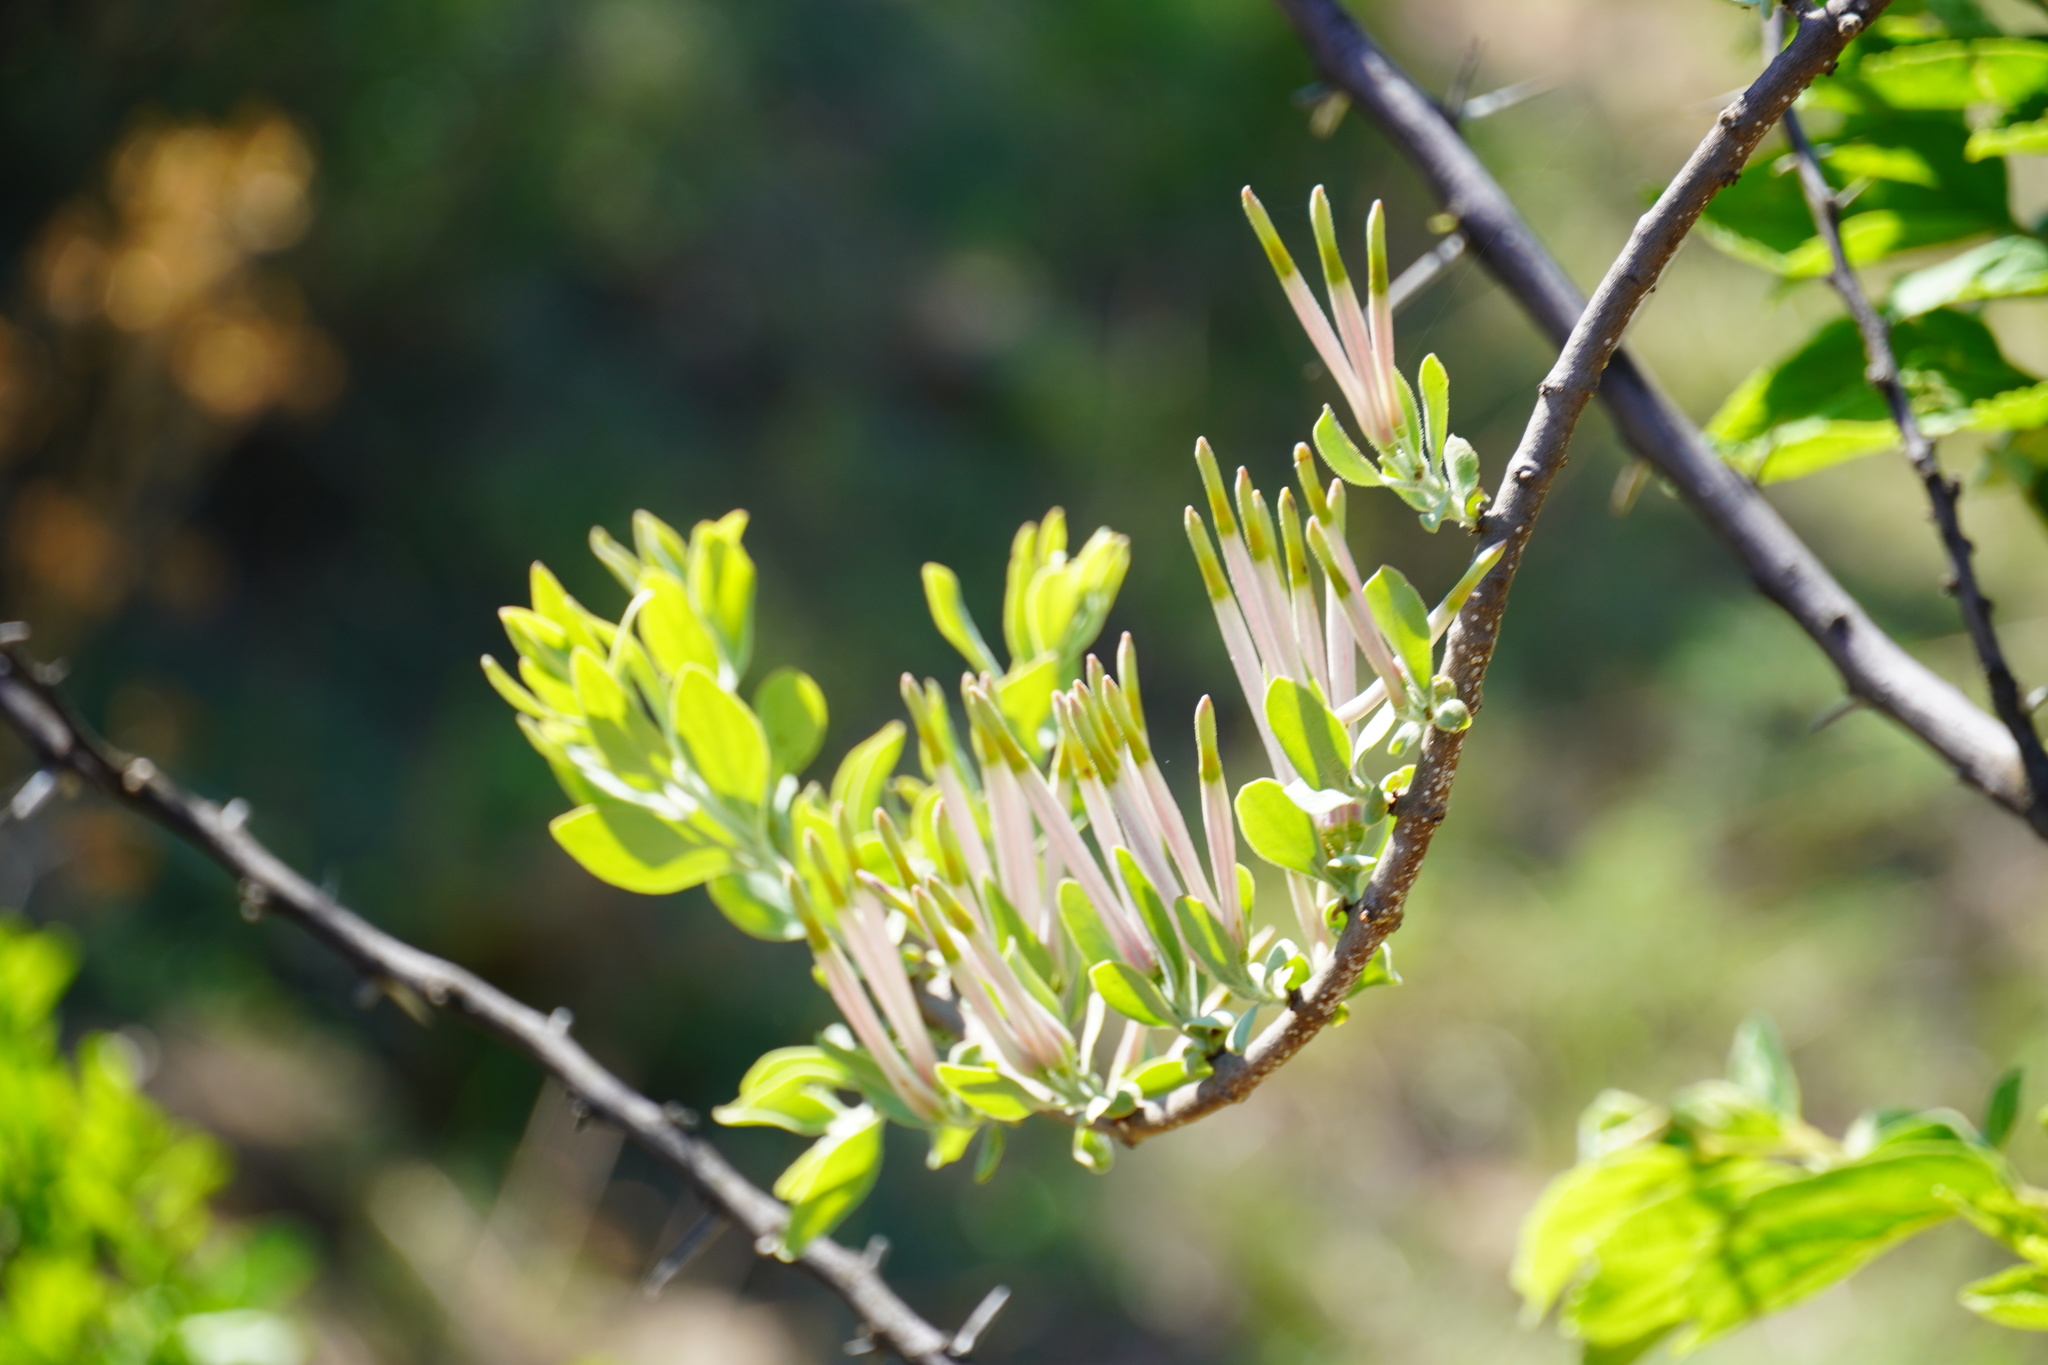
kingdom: Plantae
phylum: Tracheophyta
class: Magnoliopsida
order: Santalales
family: Loranthaceae
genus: Agelanthus
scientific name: Agelanthus natalitius
